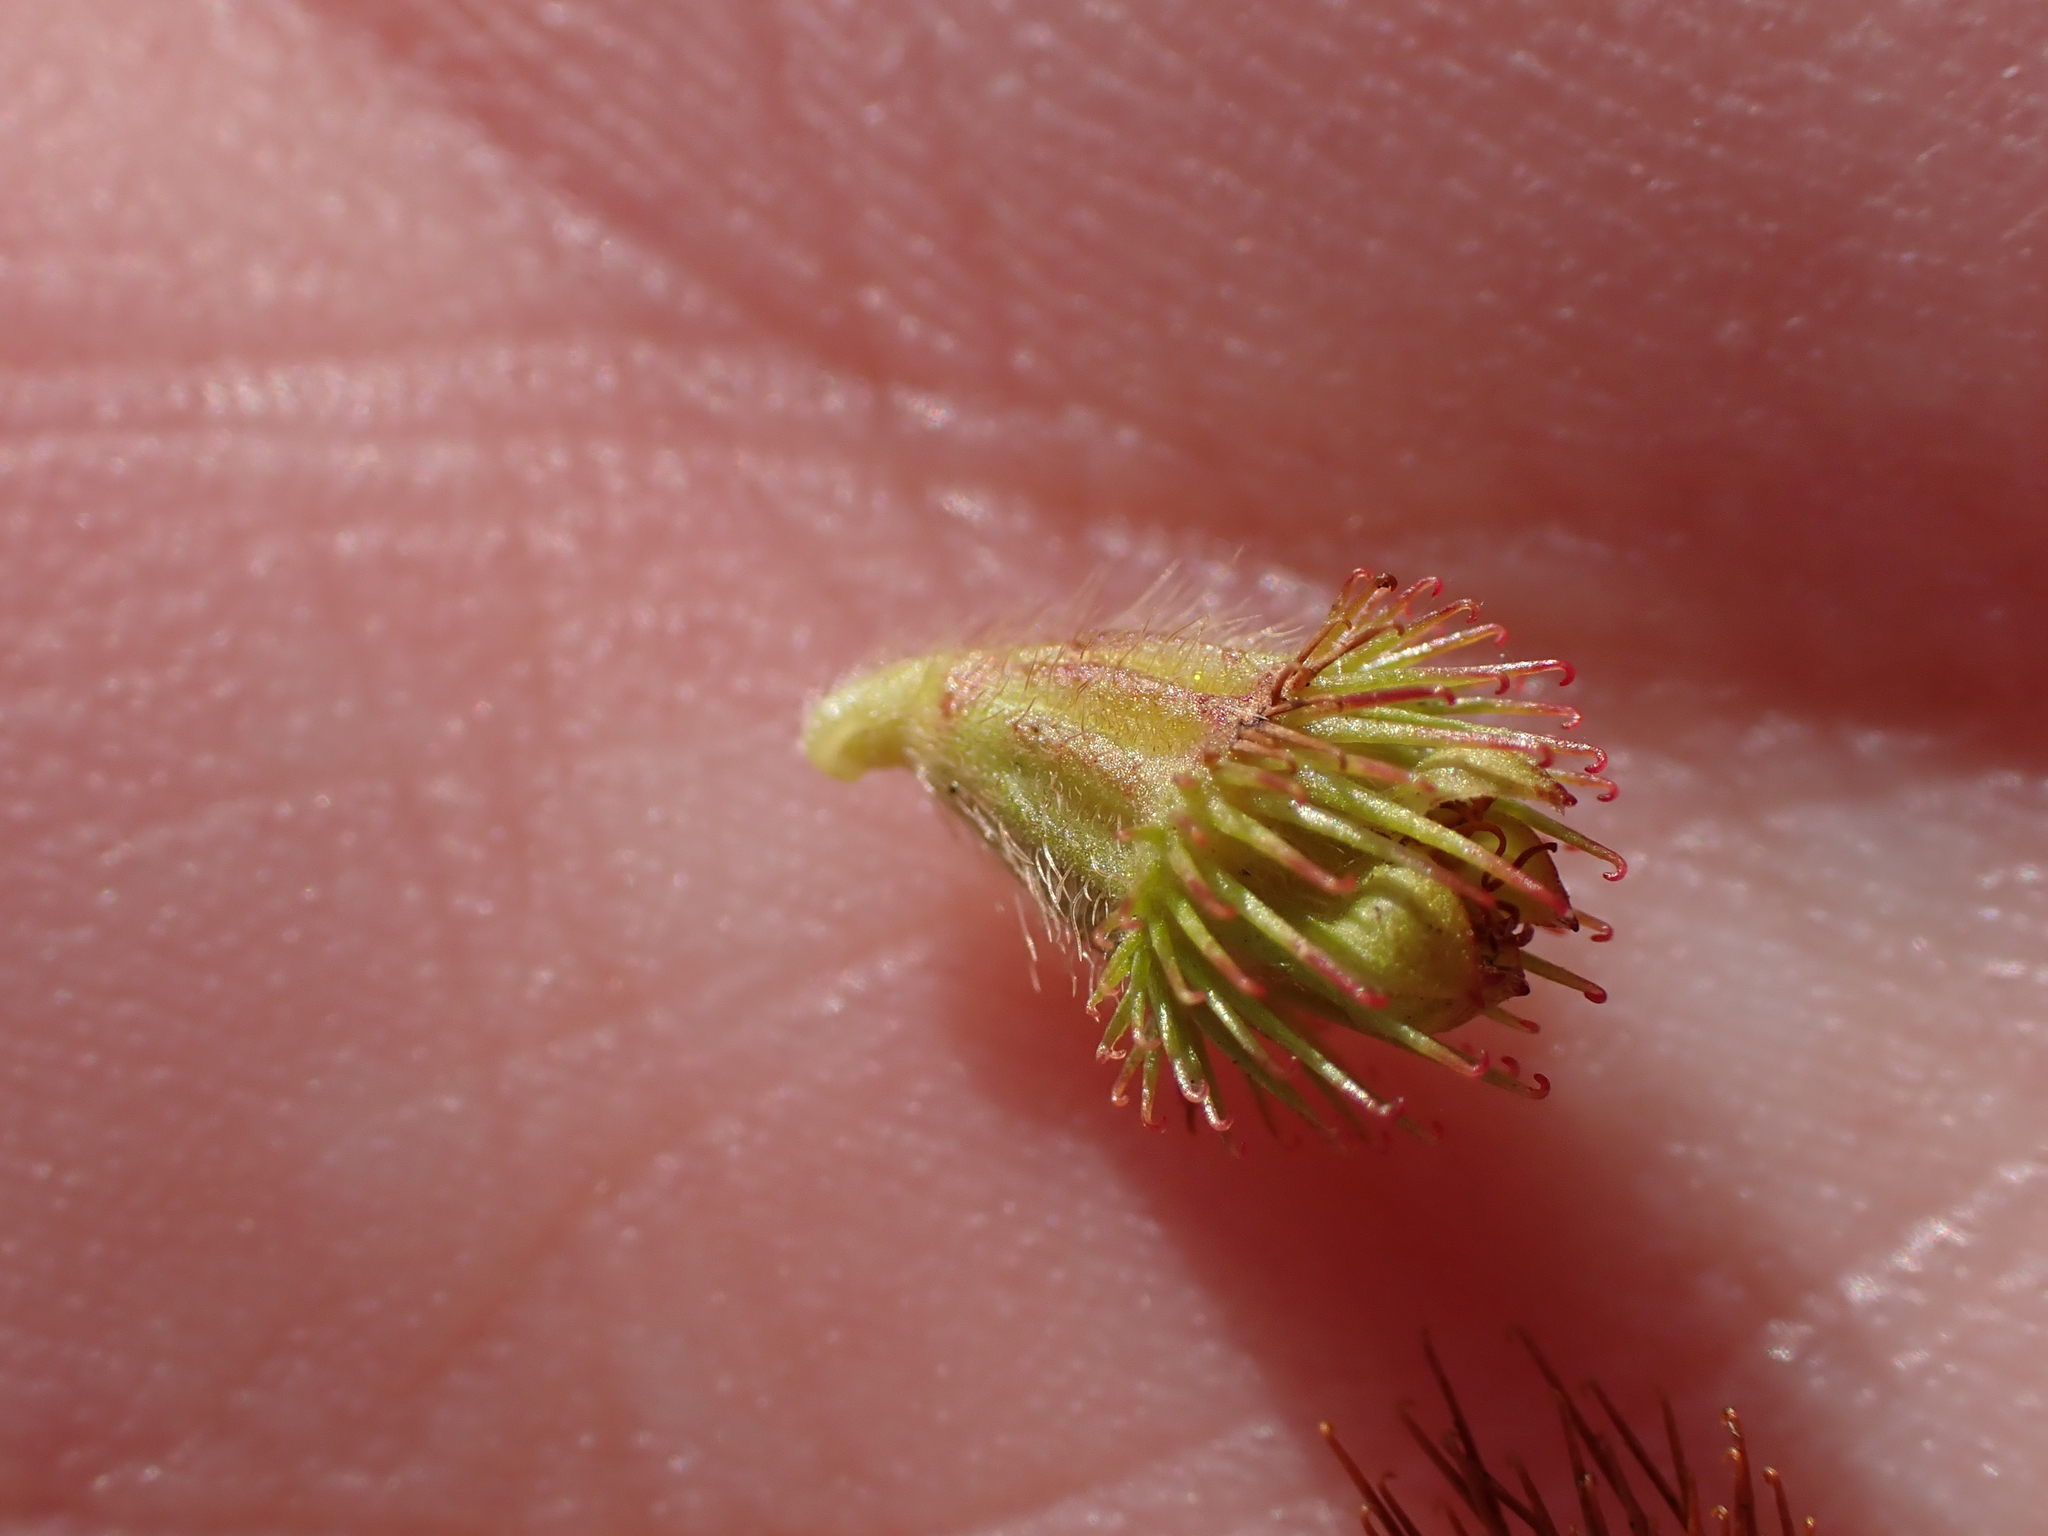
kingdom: Plantae
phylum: Tracheophyta
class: Magnoliopsida
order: Rosales
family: Rosaceae
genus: Agrimonia
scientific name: Agrimonia eupatoria
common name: Agrimony
